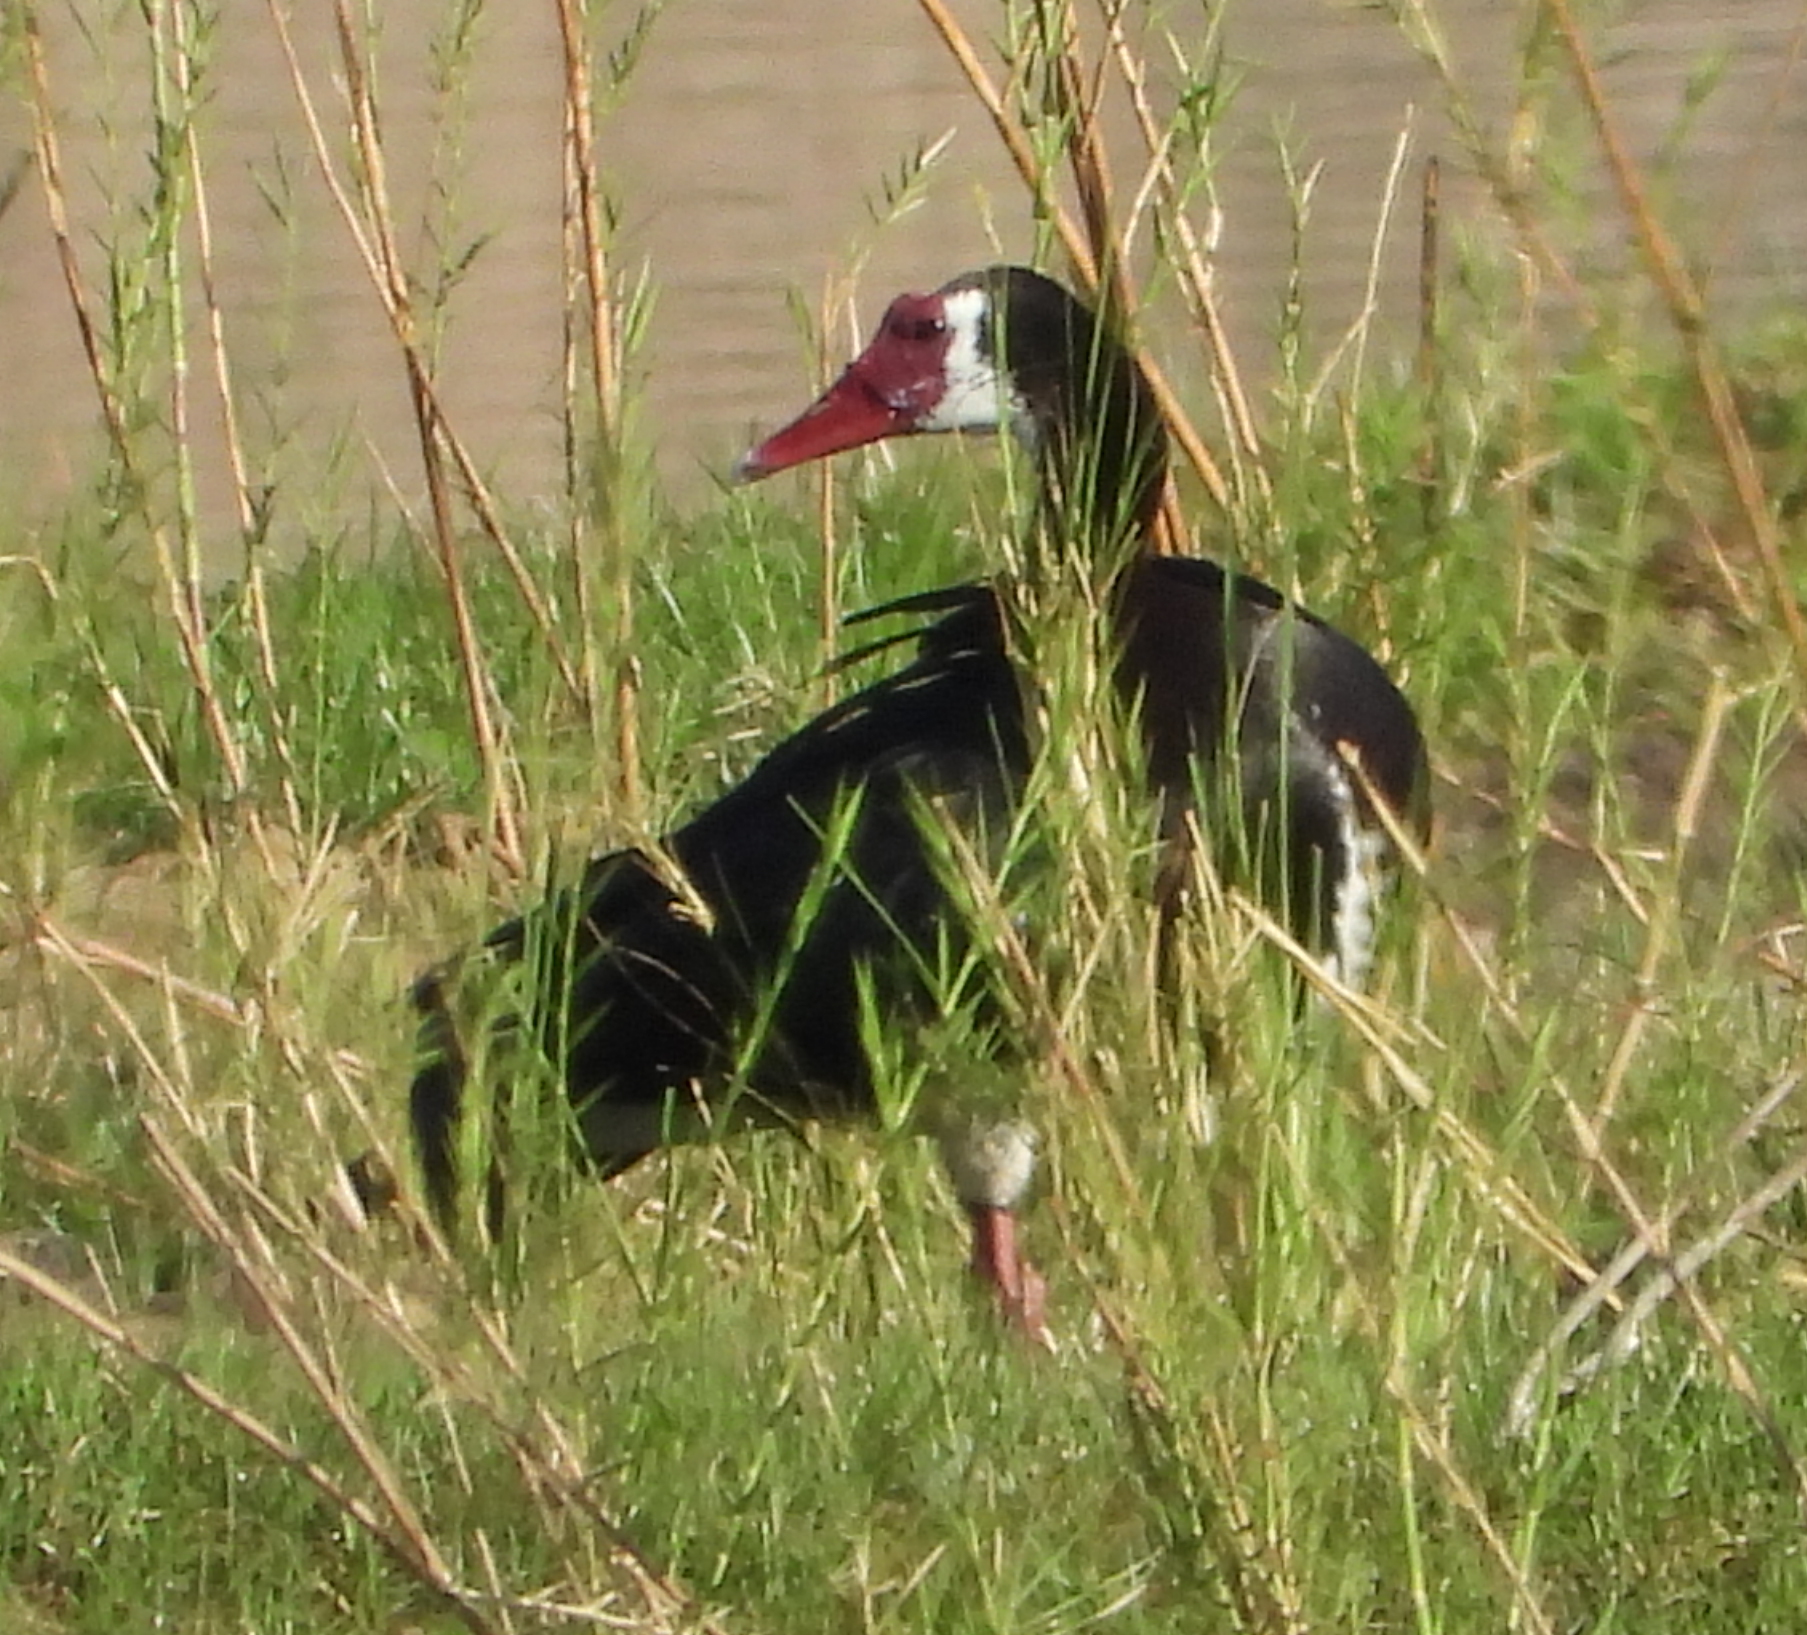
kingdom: Animalia
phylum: Chordata
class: Aves
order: Anseriformes
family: Anatidae
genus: Plectropterus
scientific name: Plectropterus gambensis
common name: Spur-winged goose
